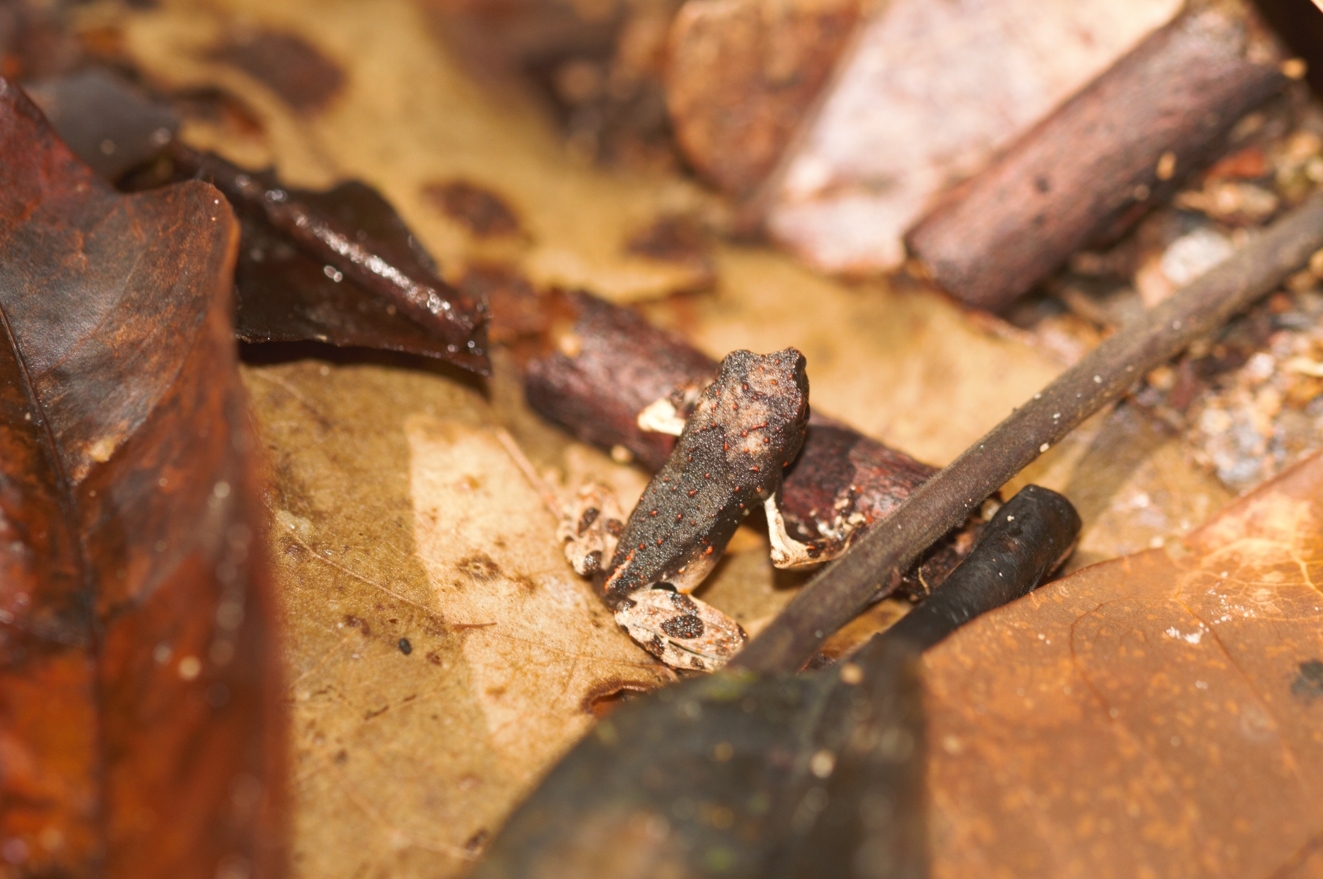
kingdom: Animalia
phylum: Chordata
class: Amphibia
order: Anura
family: Leptodactylidae
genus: Engystomops
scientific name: Engystomops petersi
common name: Peters’ dwarf frog
